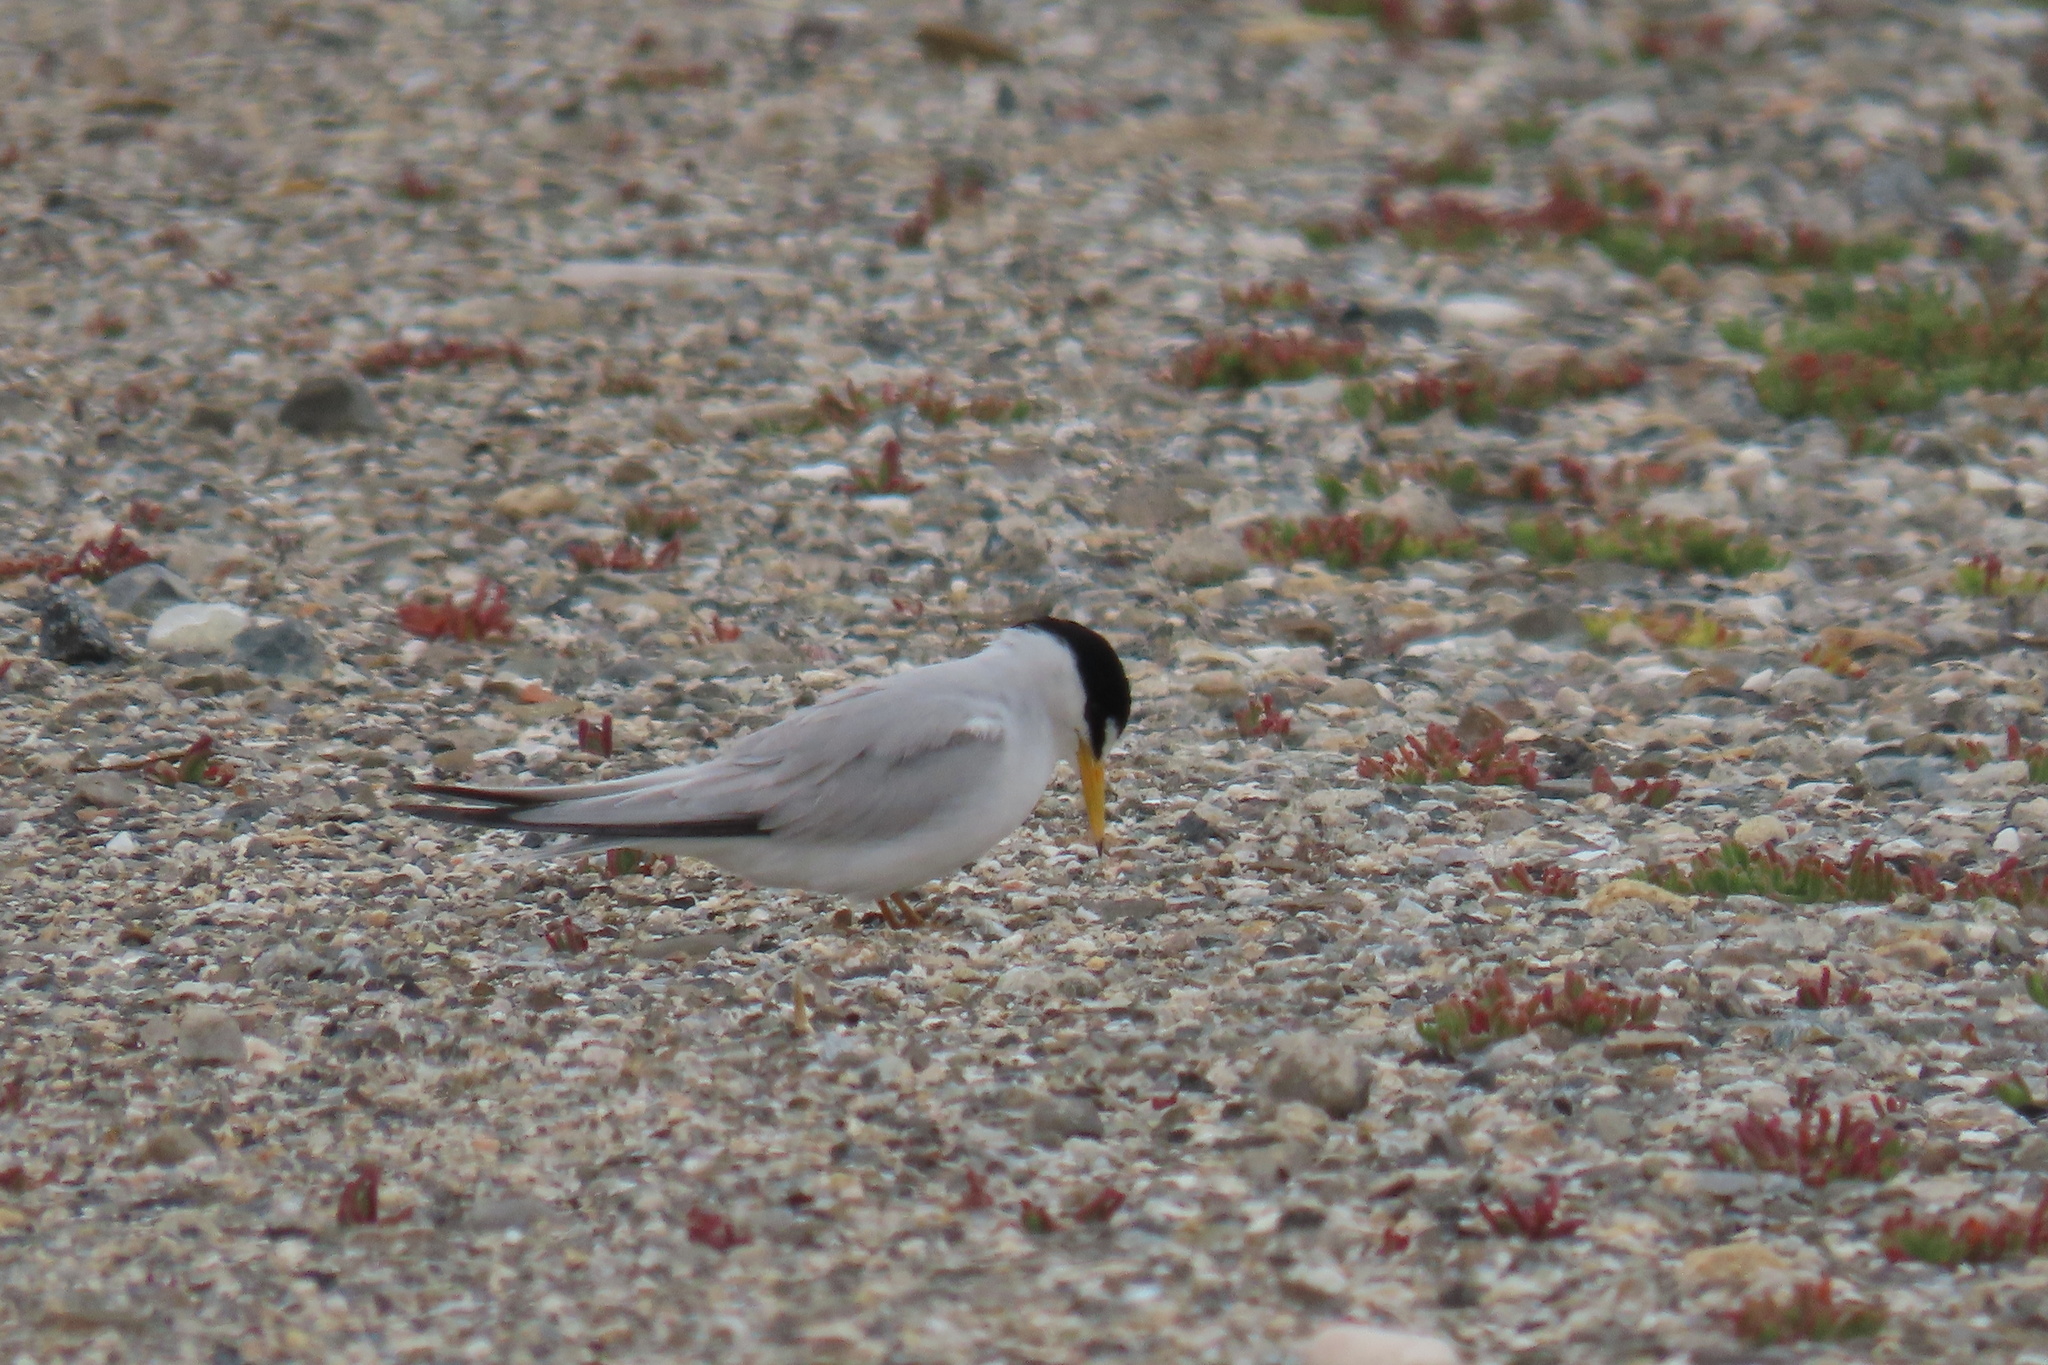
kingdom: Animalia
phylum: Chordata
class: Aves
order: Charadriiformes
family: Laridae
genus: Sternula
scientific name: Sternula antillarum
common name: Least tern
